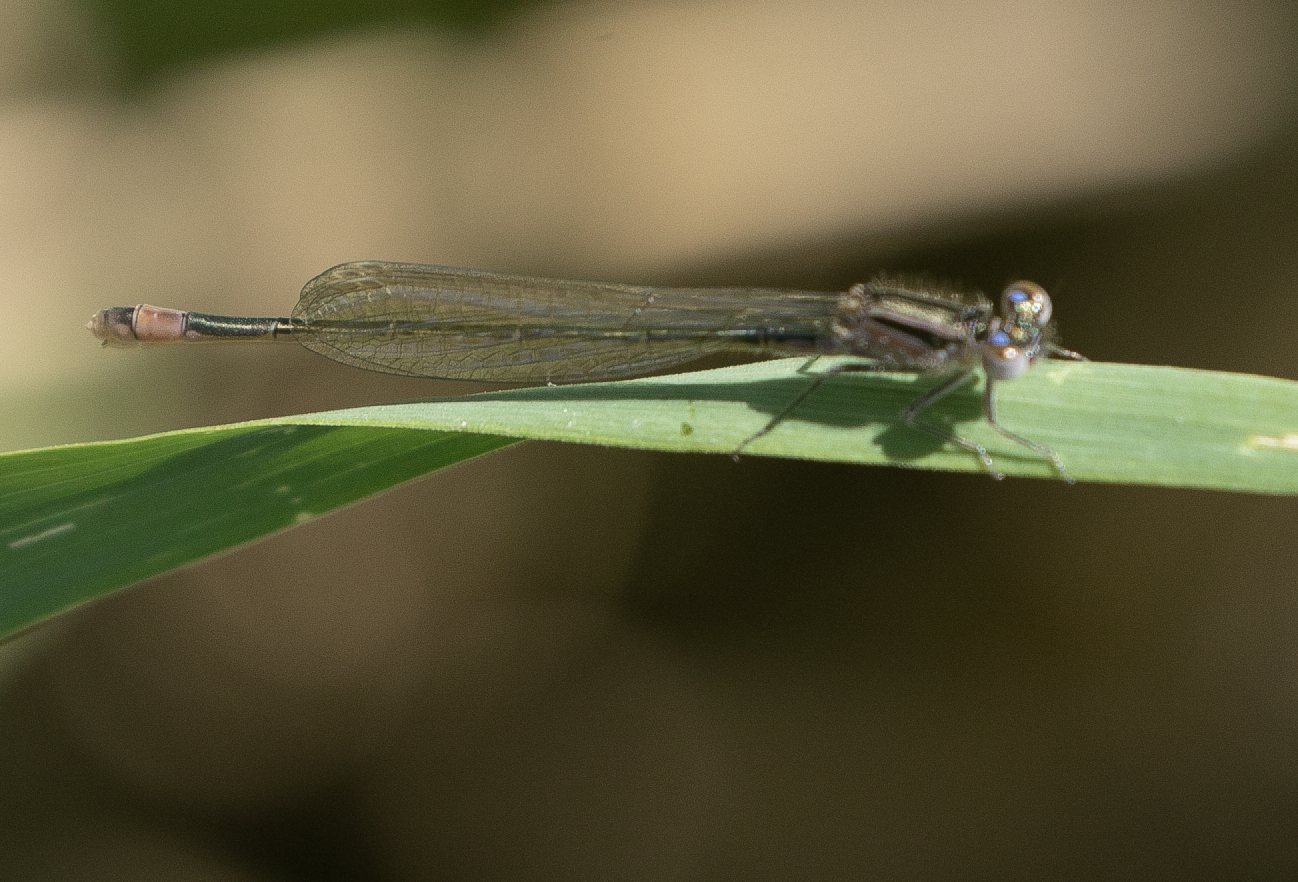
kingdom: Animalia
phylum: Arthropoda
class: Insecta
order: Odonata
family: Coenagrionidae
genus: Ischnura
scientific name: Ischnura elegans
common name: Blue-tailed damselfly
